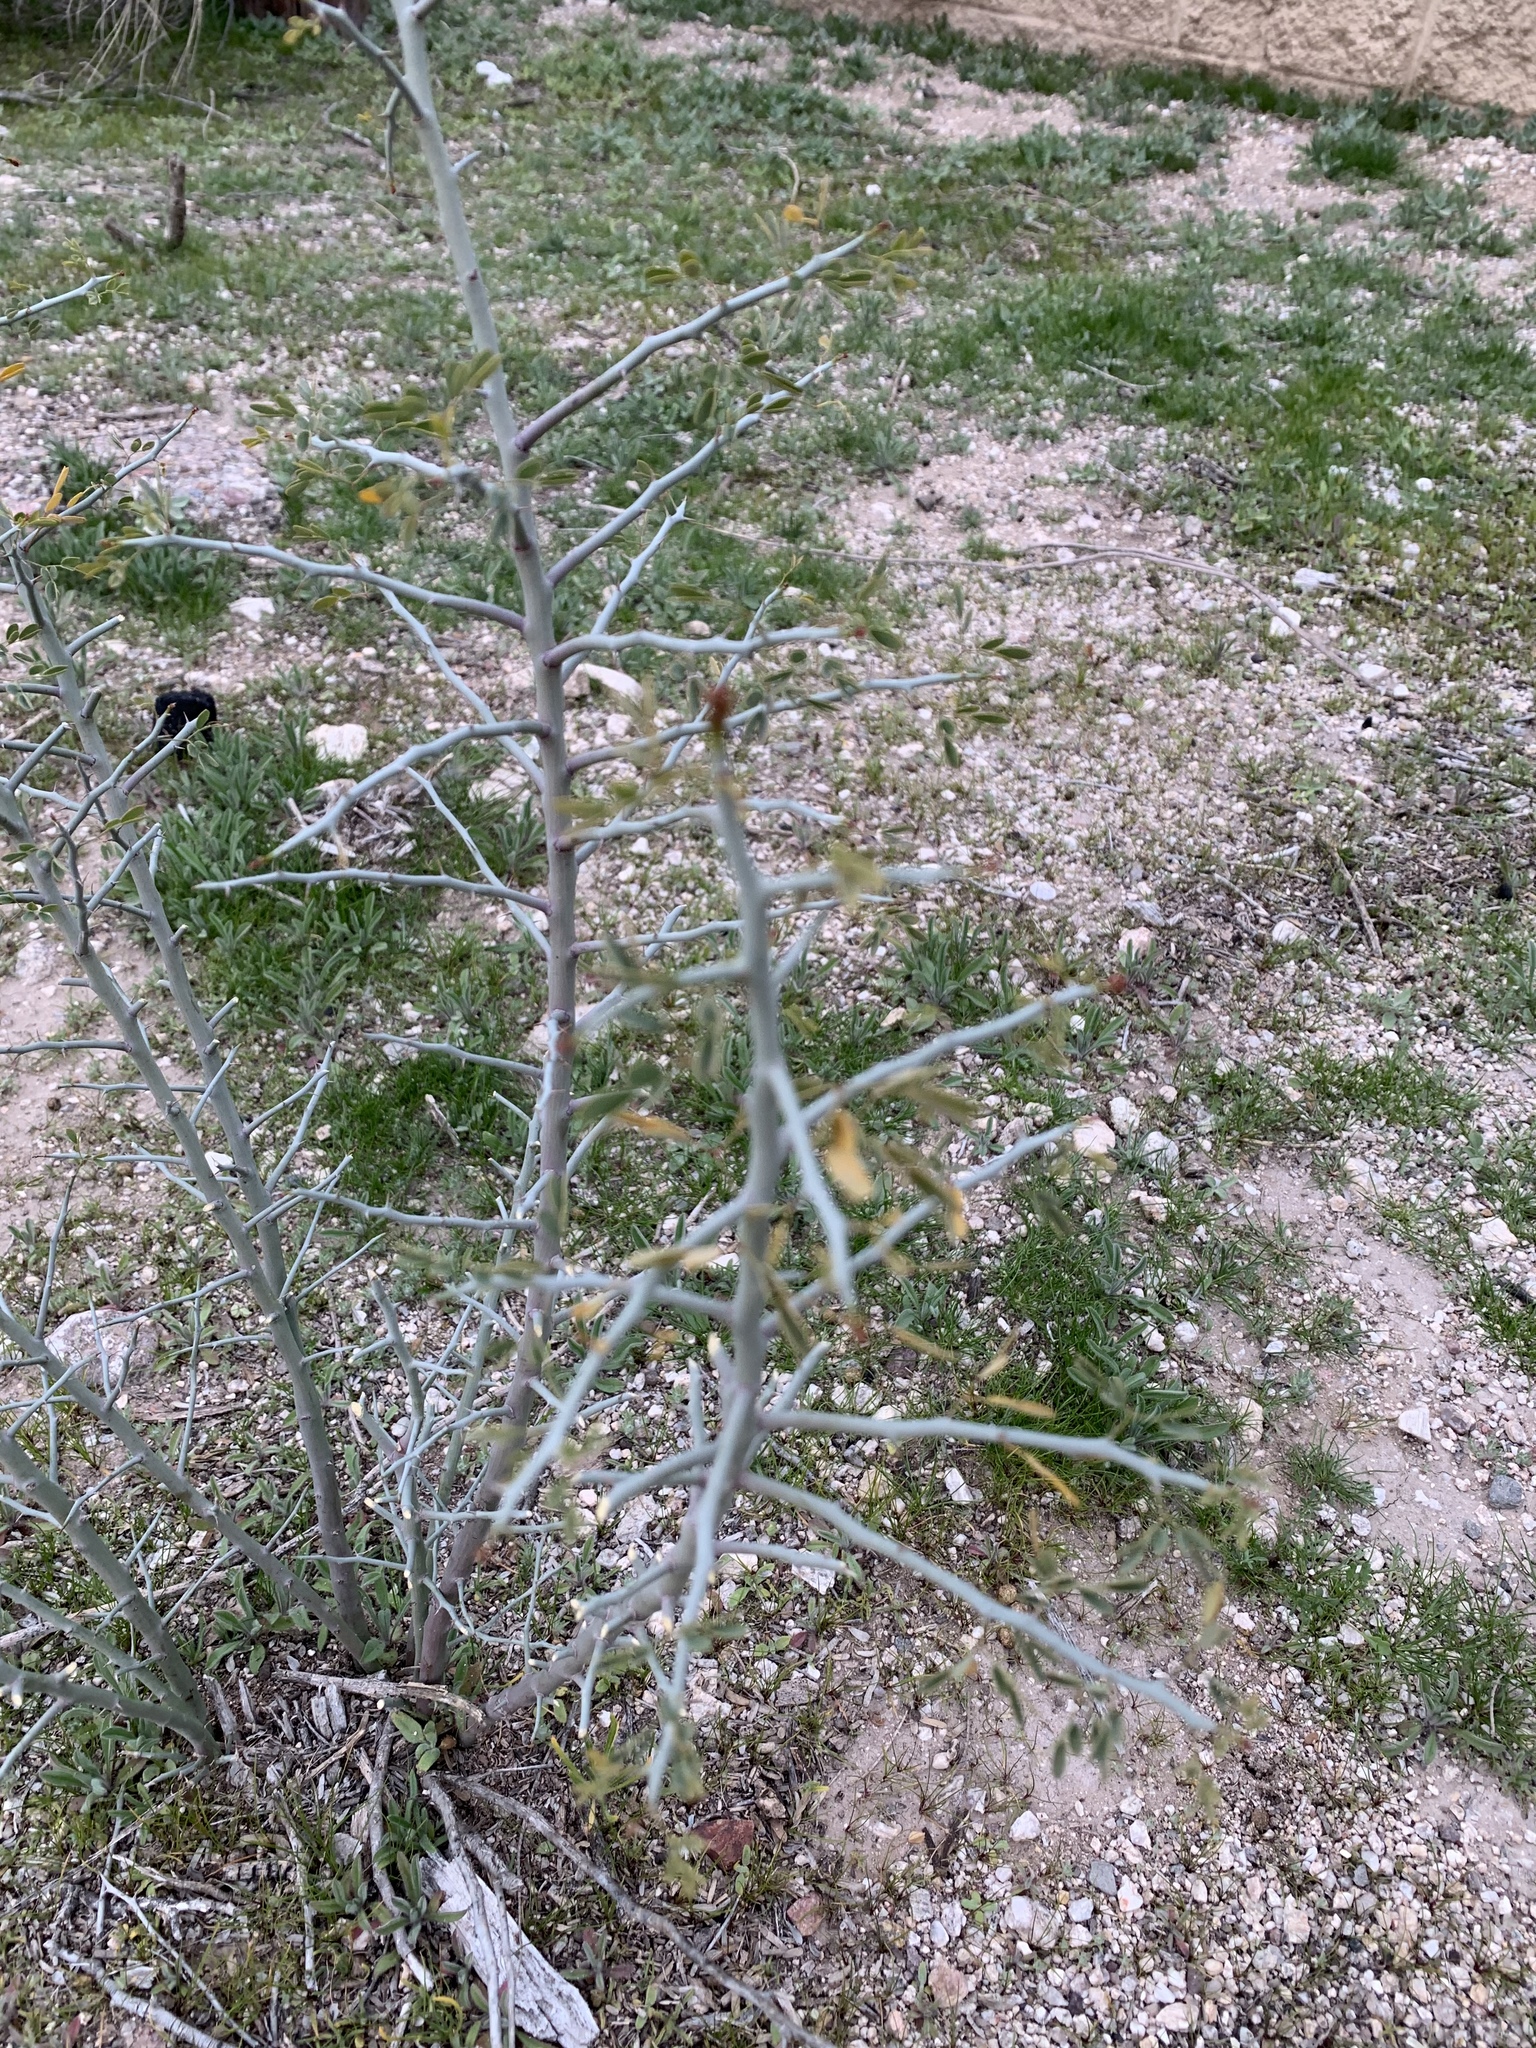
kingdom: Plantae
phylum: Tracheophyta
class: Magnoliopsida
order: Fabales
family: Fabaceae
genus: Parkinsonia
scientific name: Parkinsonia florida
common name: Blue paloverde
